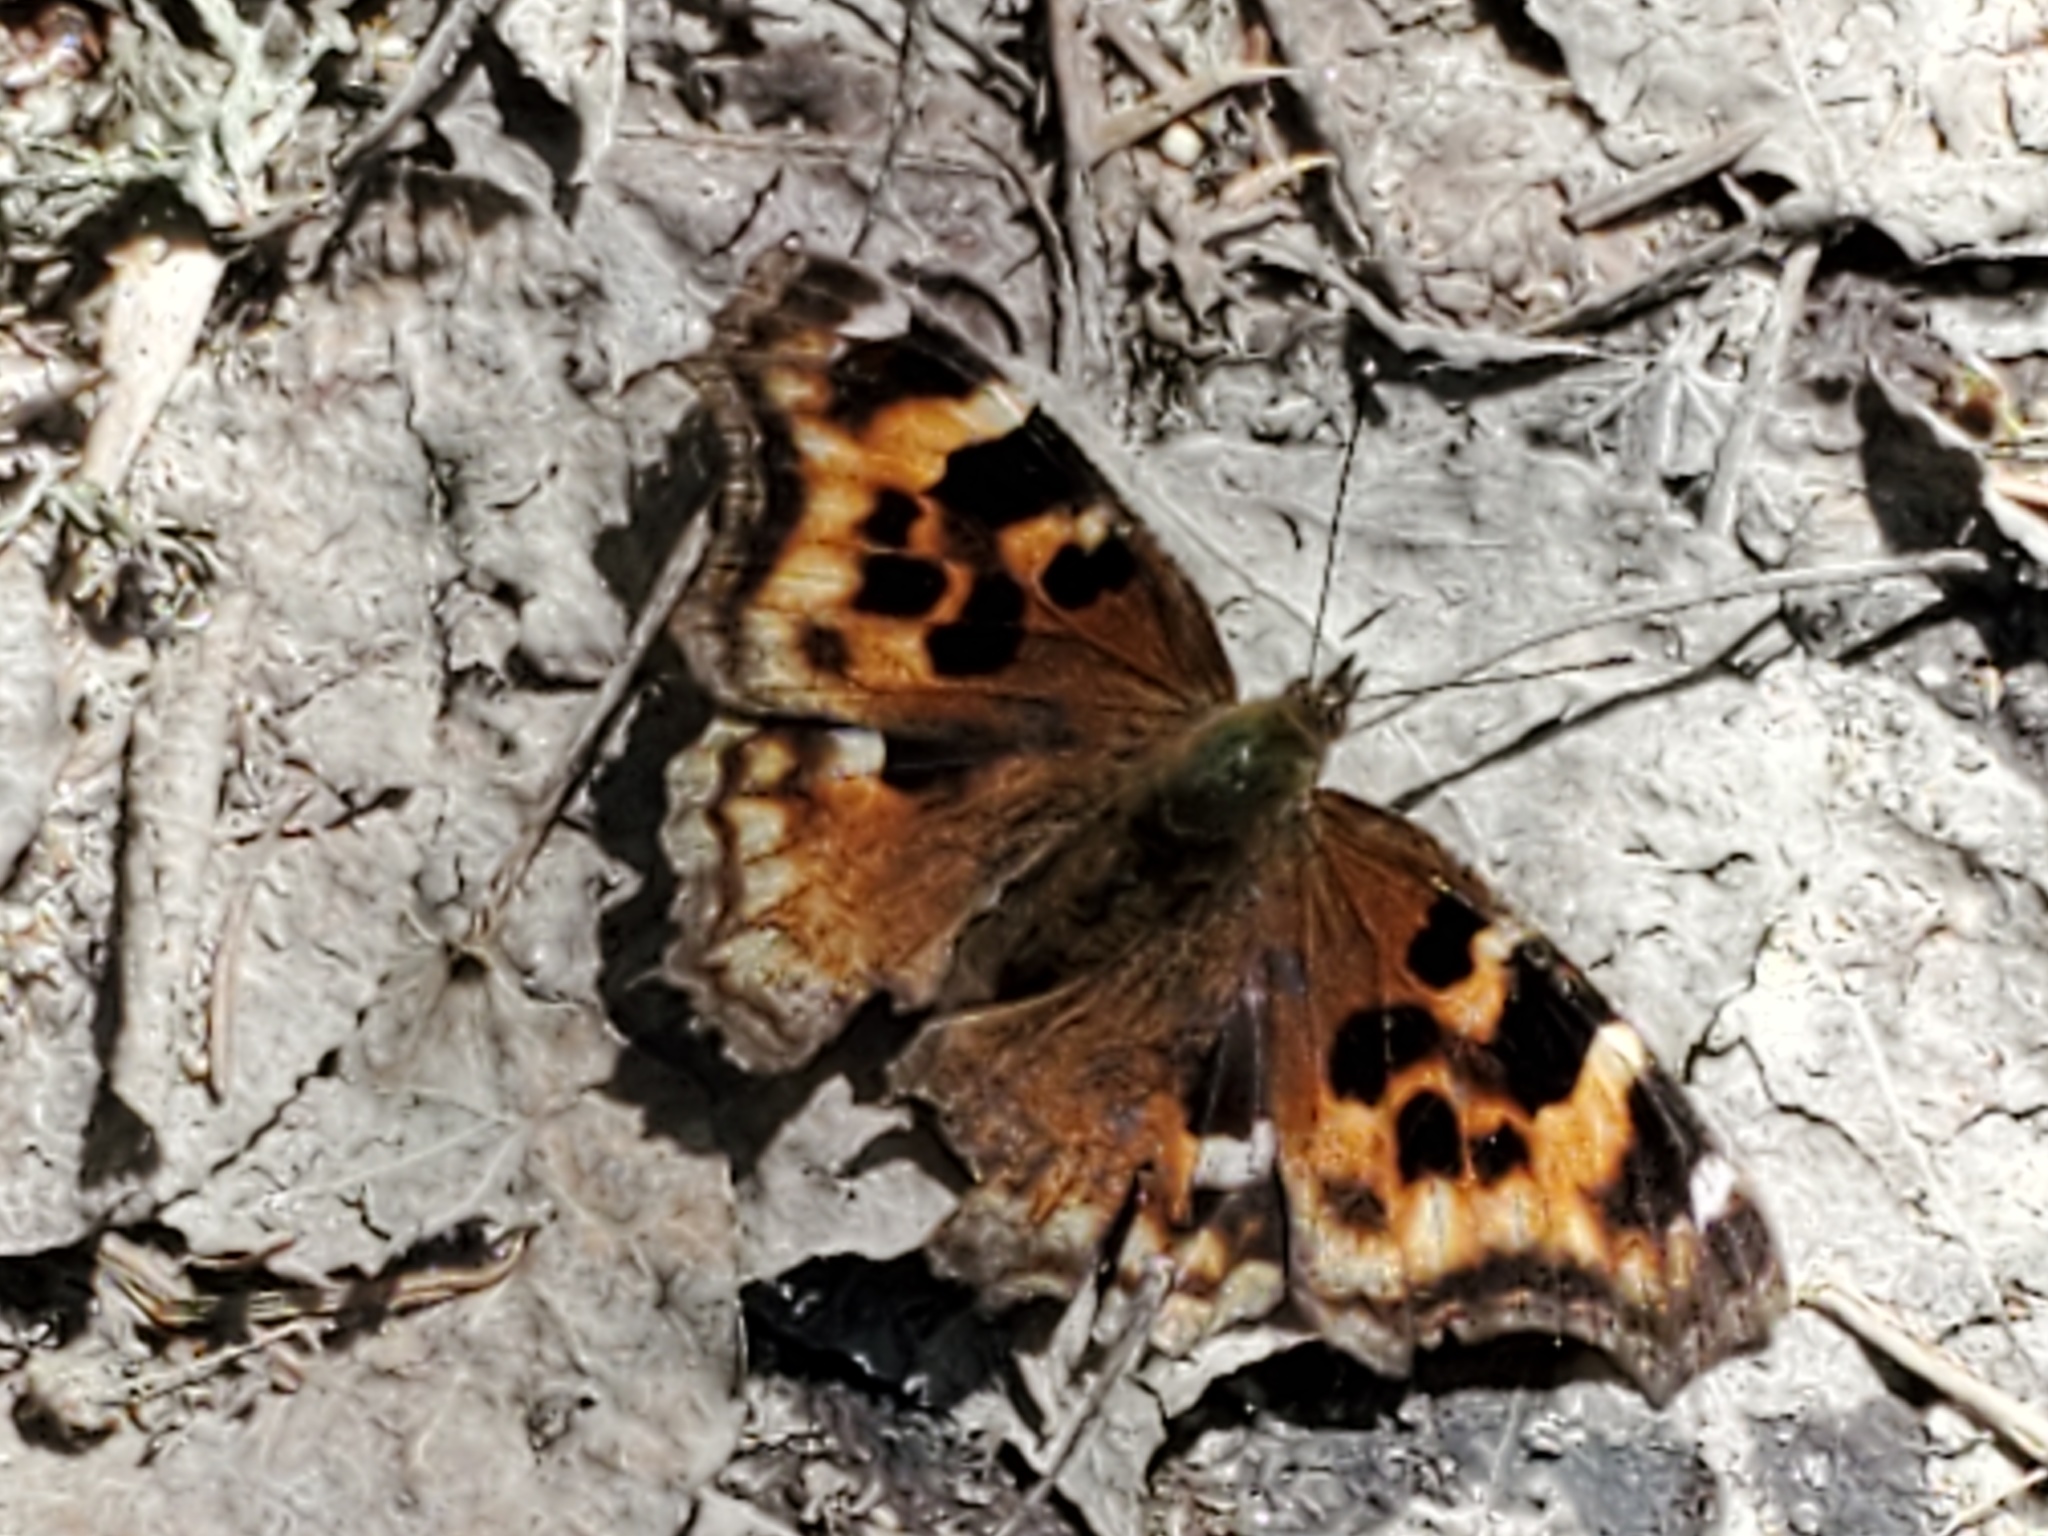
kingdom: Animalia
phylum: Arthropoda
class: Insecta
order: Lepidoptera
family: Nymphalidae
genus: Polygonia
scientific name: Polygonia vaualbum
